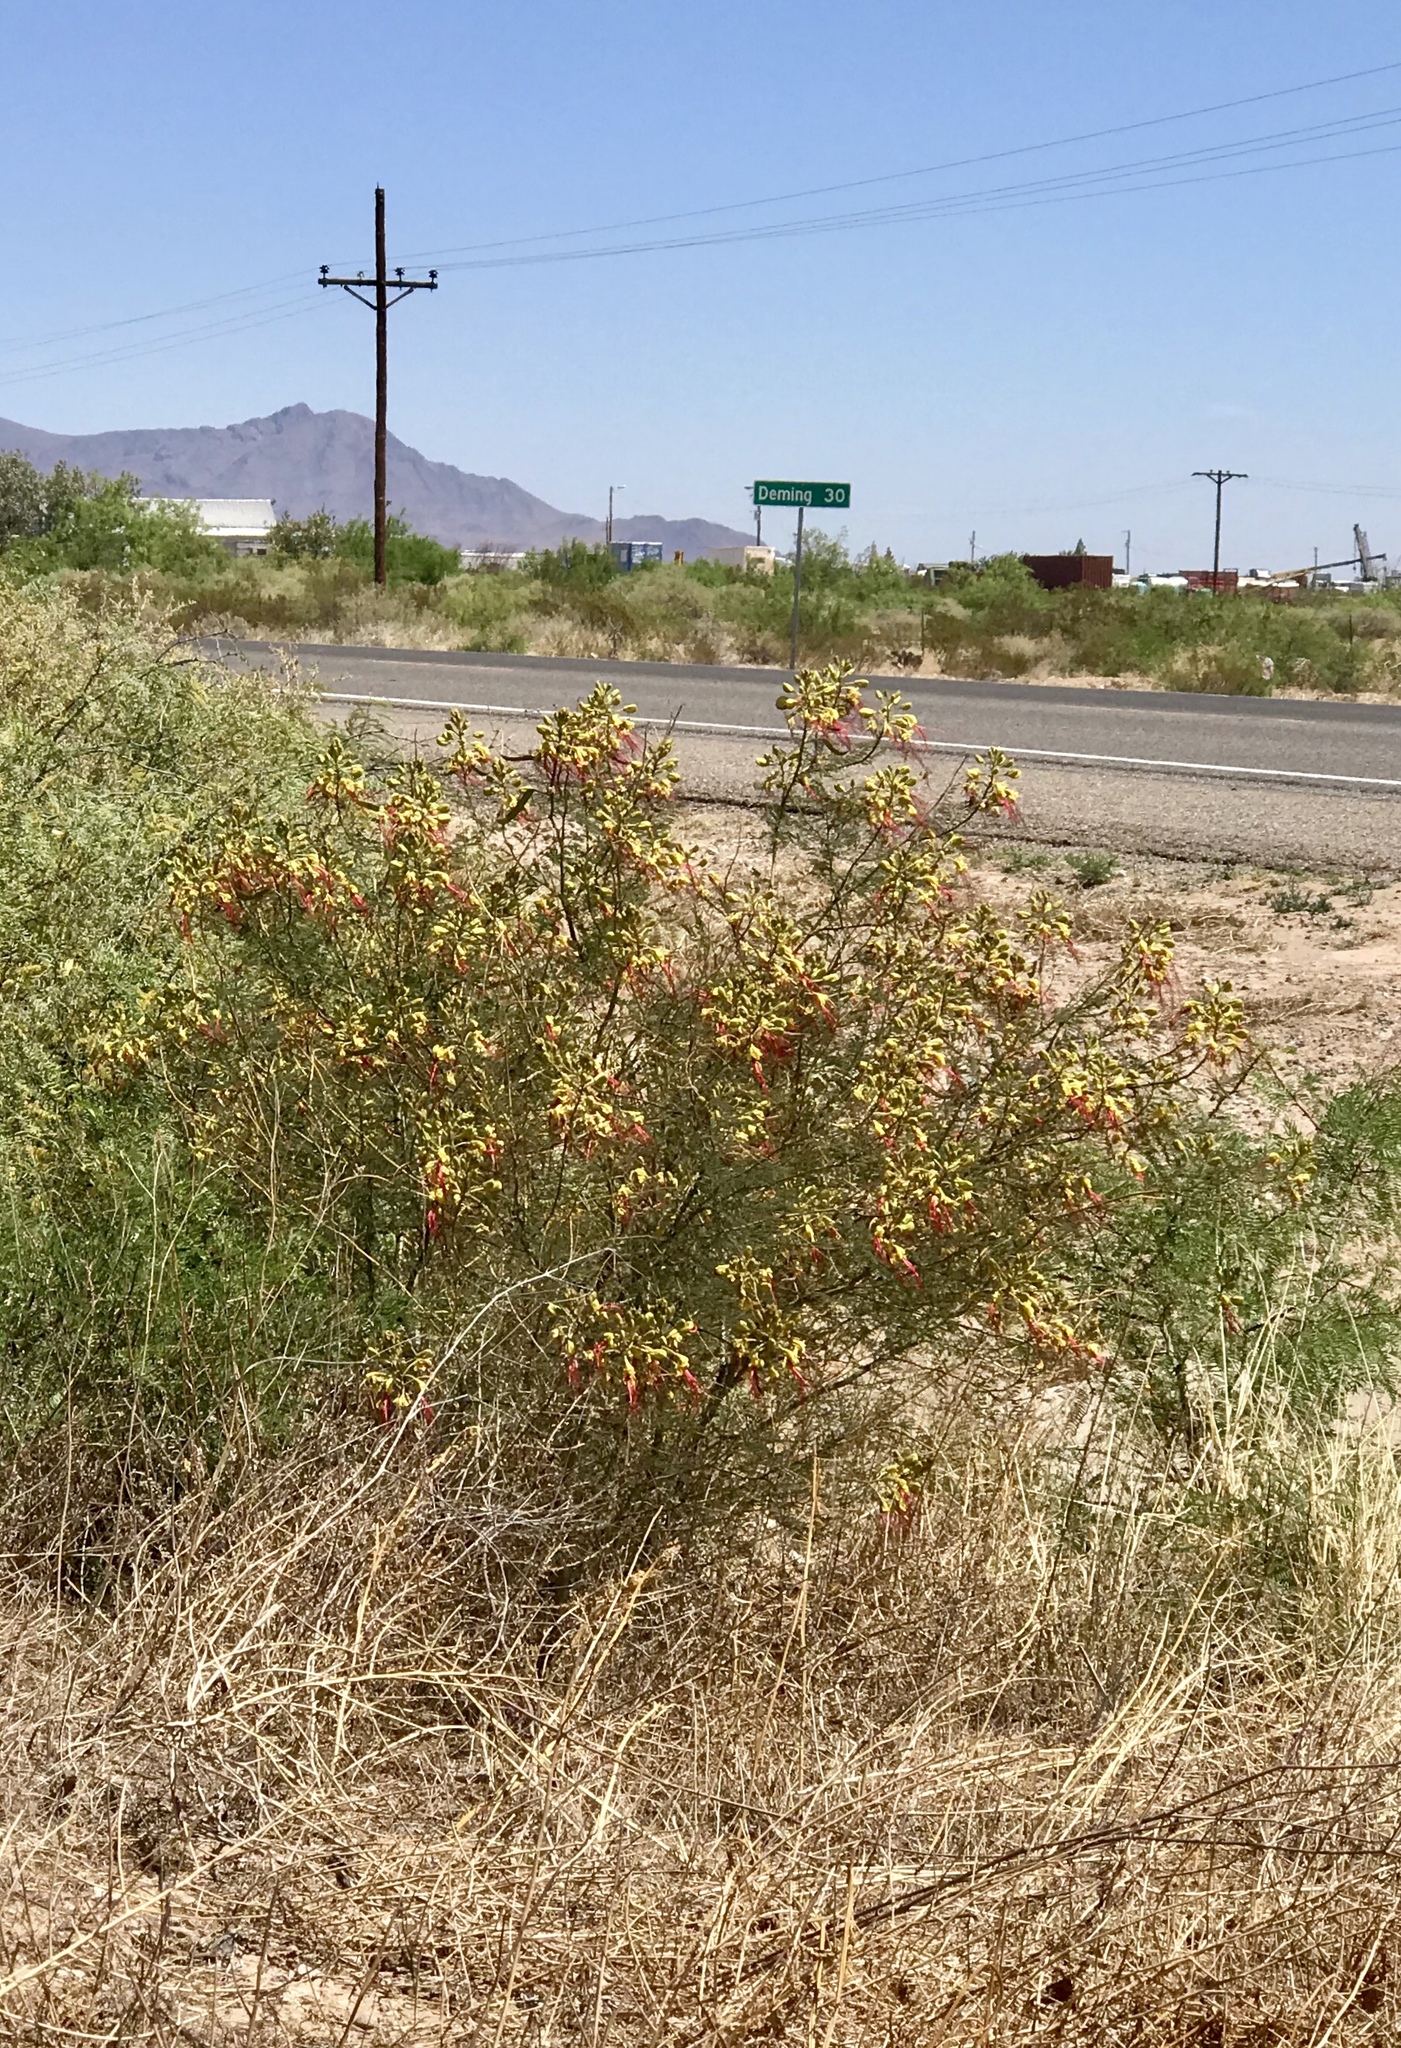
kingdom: Plantae
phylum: Tracheophyta
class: Magnoliopsida
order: Fabales
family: Fabaceae
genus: Erythrostemon
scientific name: Erythrostemon gilliesii
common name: Bird-of-paradise shrub
